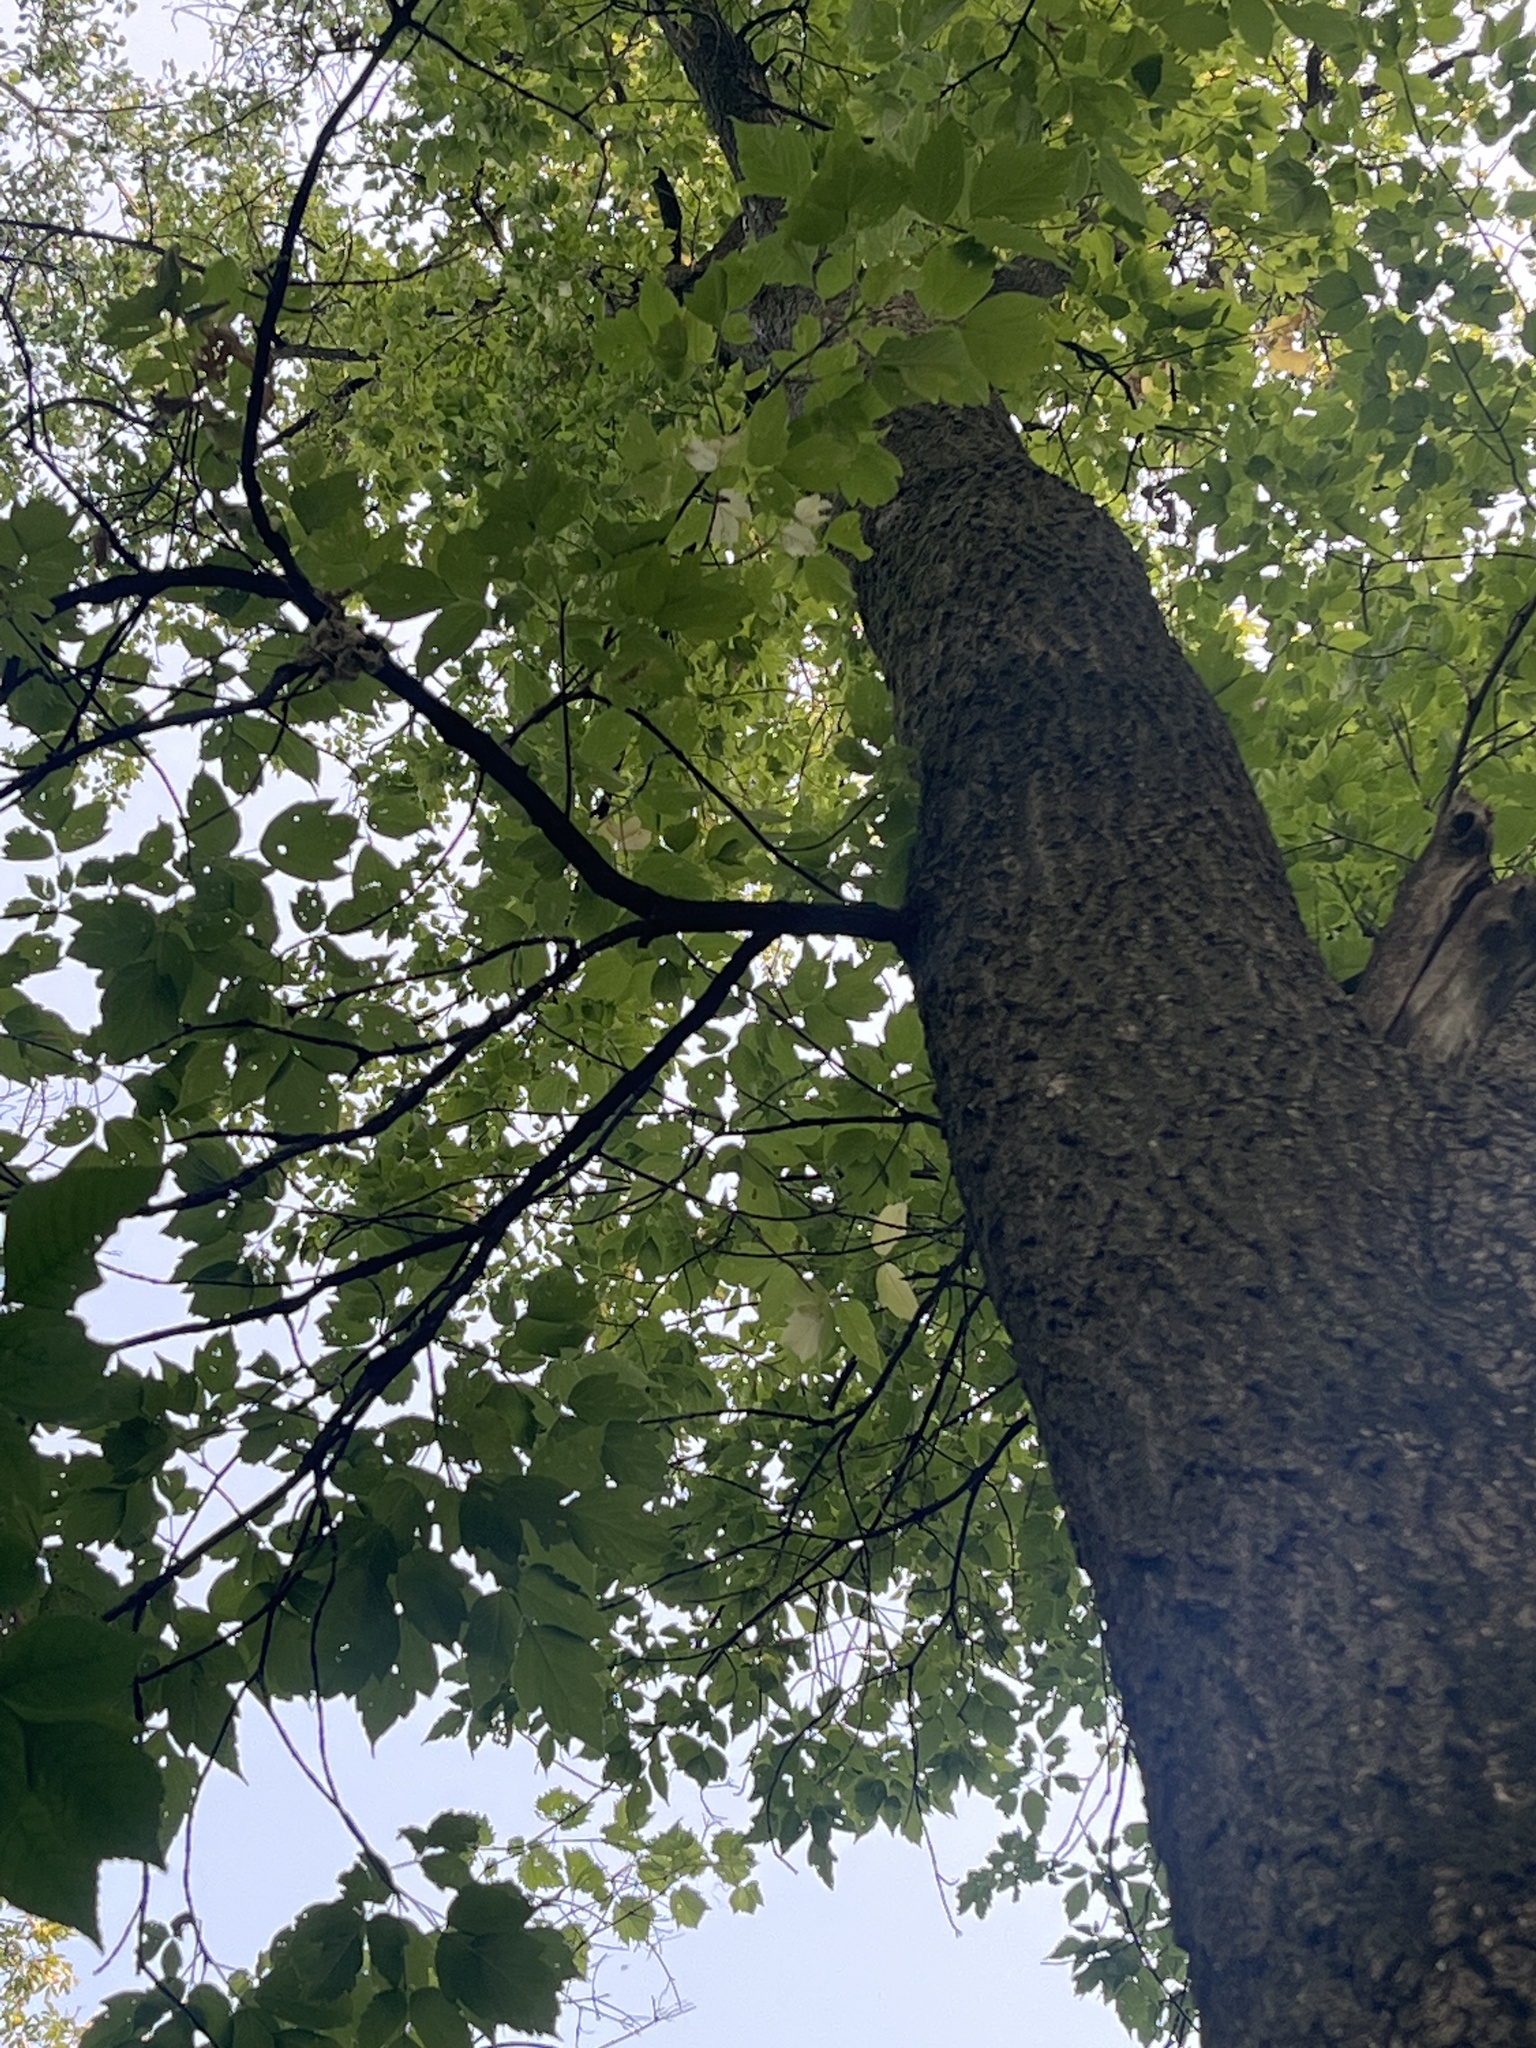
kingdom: Plantae
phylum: Tracheophyta
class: Magnoliopsida
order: Sapindales
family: Sapindaceae
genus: Acer
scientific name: Acer negundo
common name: Ashleaf maple
